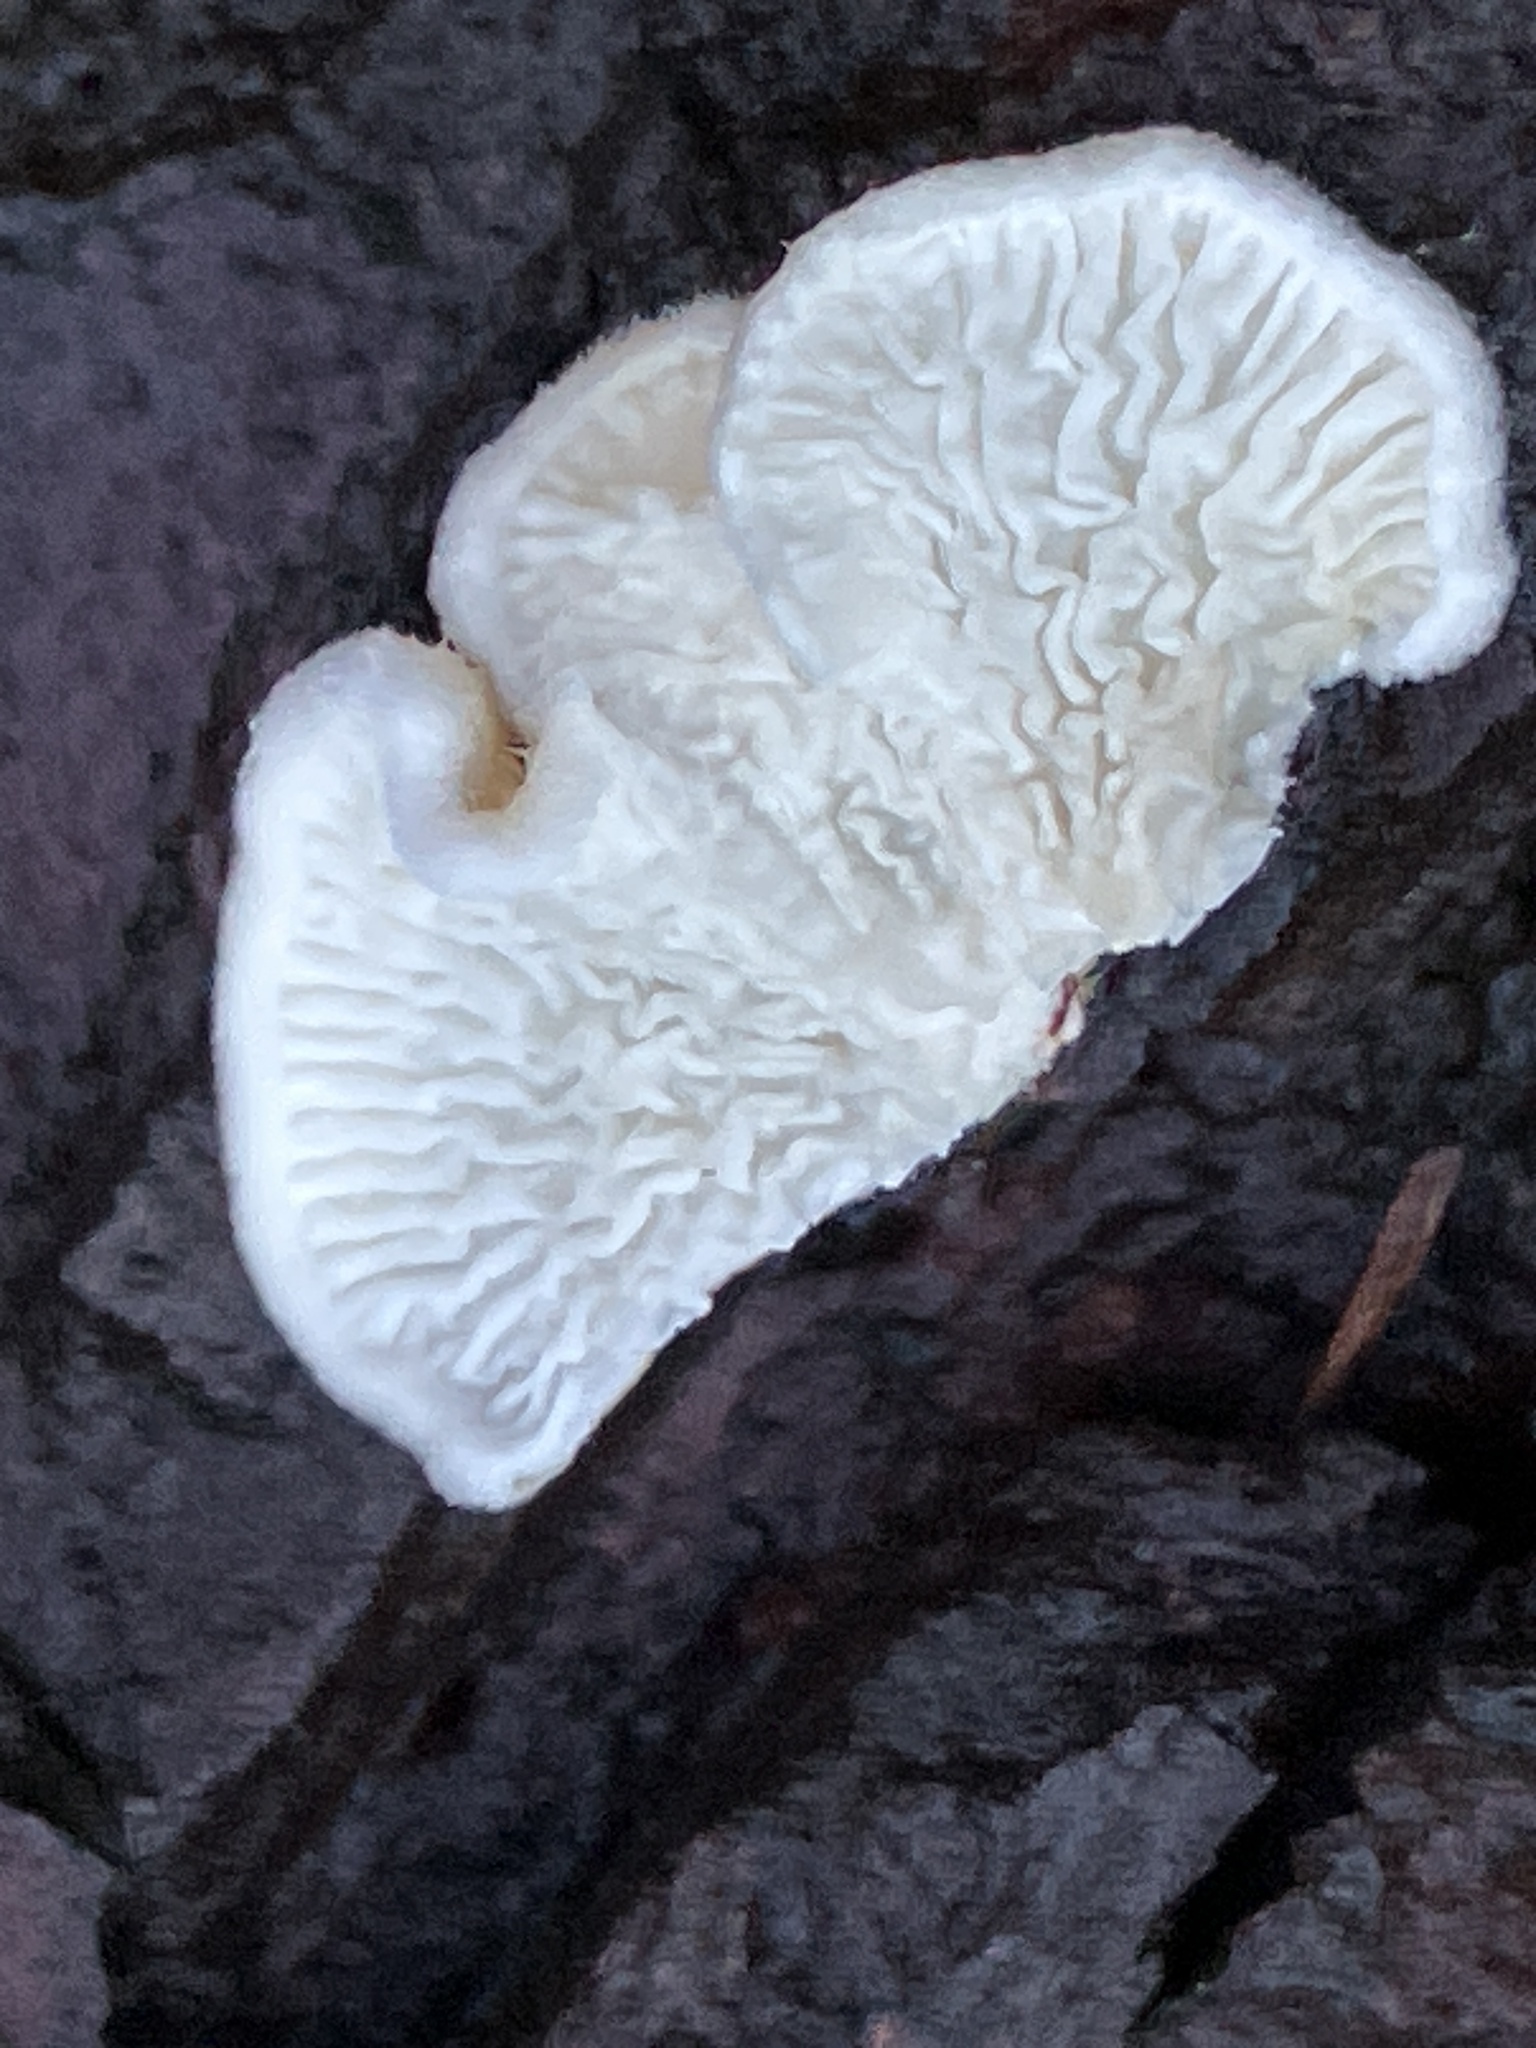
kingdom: Fungi
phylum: Basidiomycota
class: Agaricomycetes
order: Amylocorticiales
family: Amylocorticiaceae
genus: Plicaturopsis
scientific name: Plicaturopsis crispa
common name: Crimped gill
